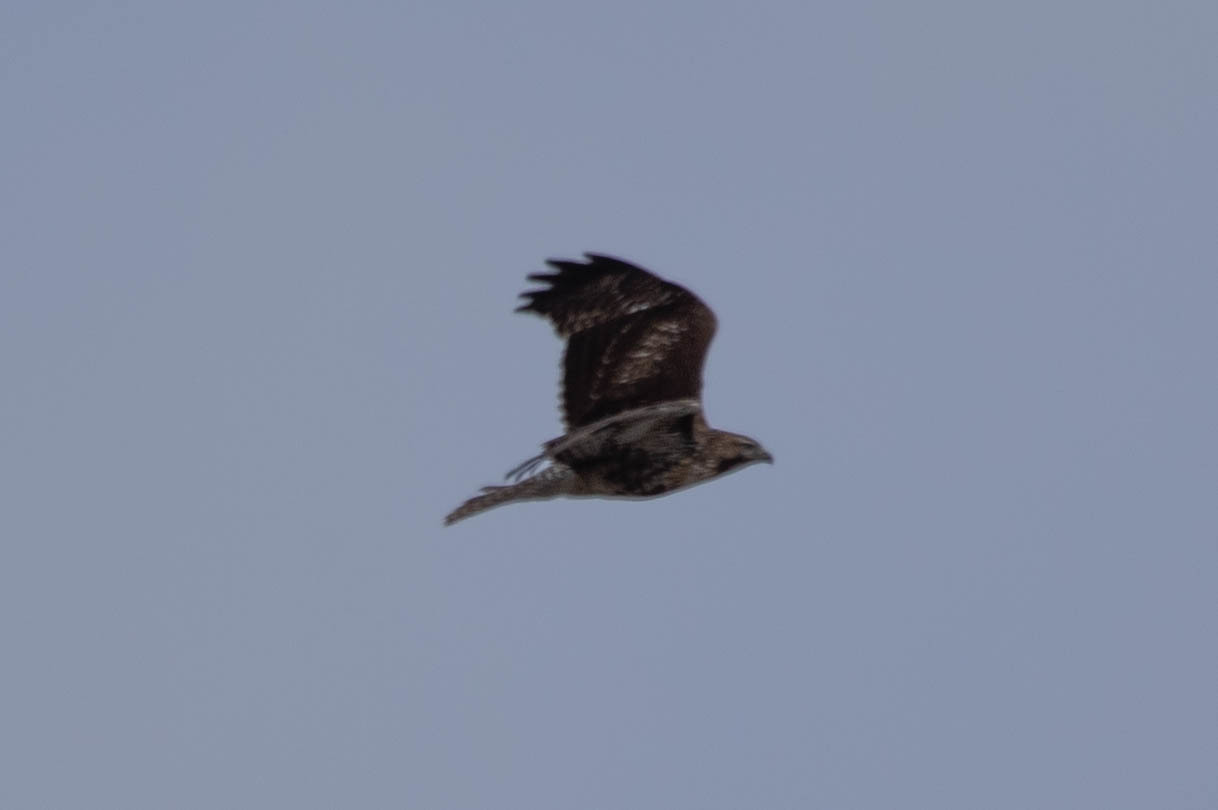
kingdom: Animalia
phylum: Chordata
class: Aves
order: Accipitriformes
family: Accipitridae
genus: Buteo
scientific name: Buteo jamaicensis
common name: Red-tailed hawk
